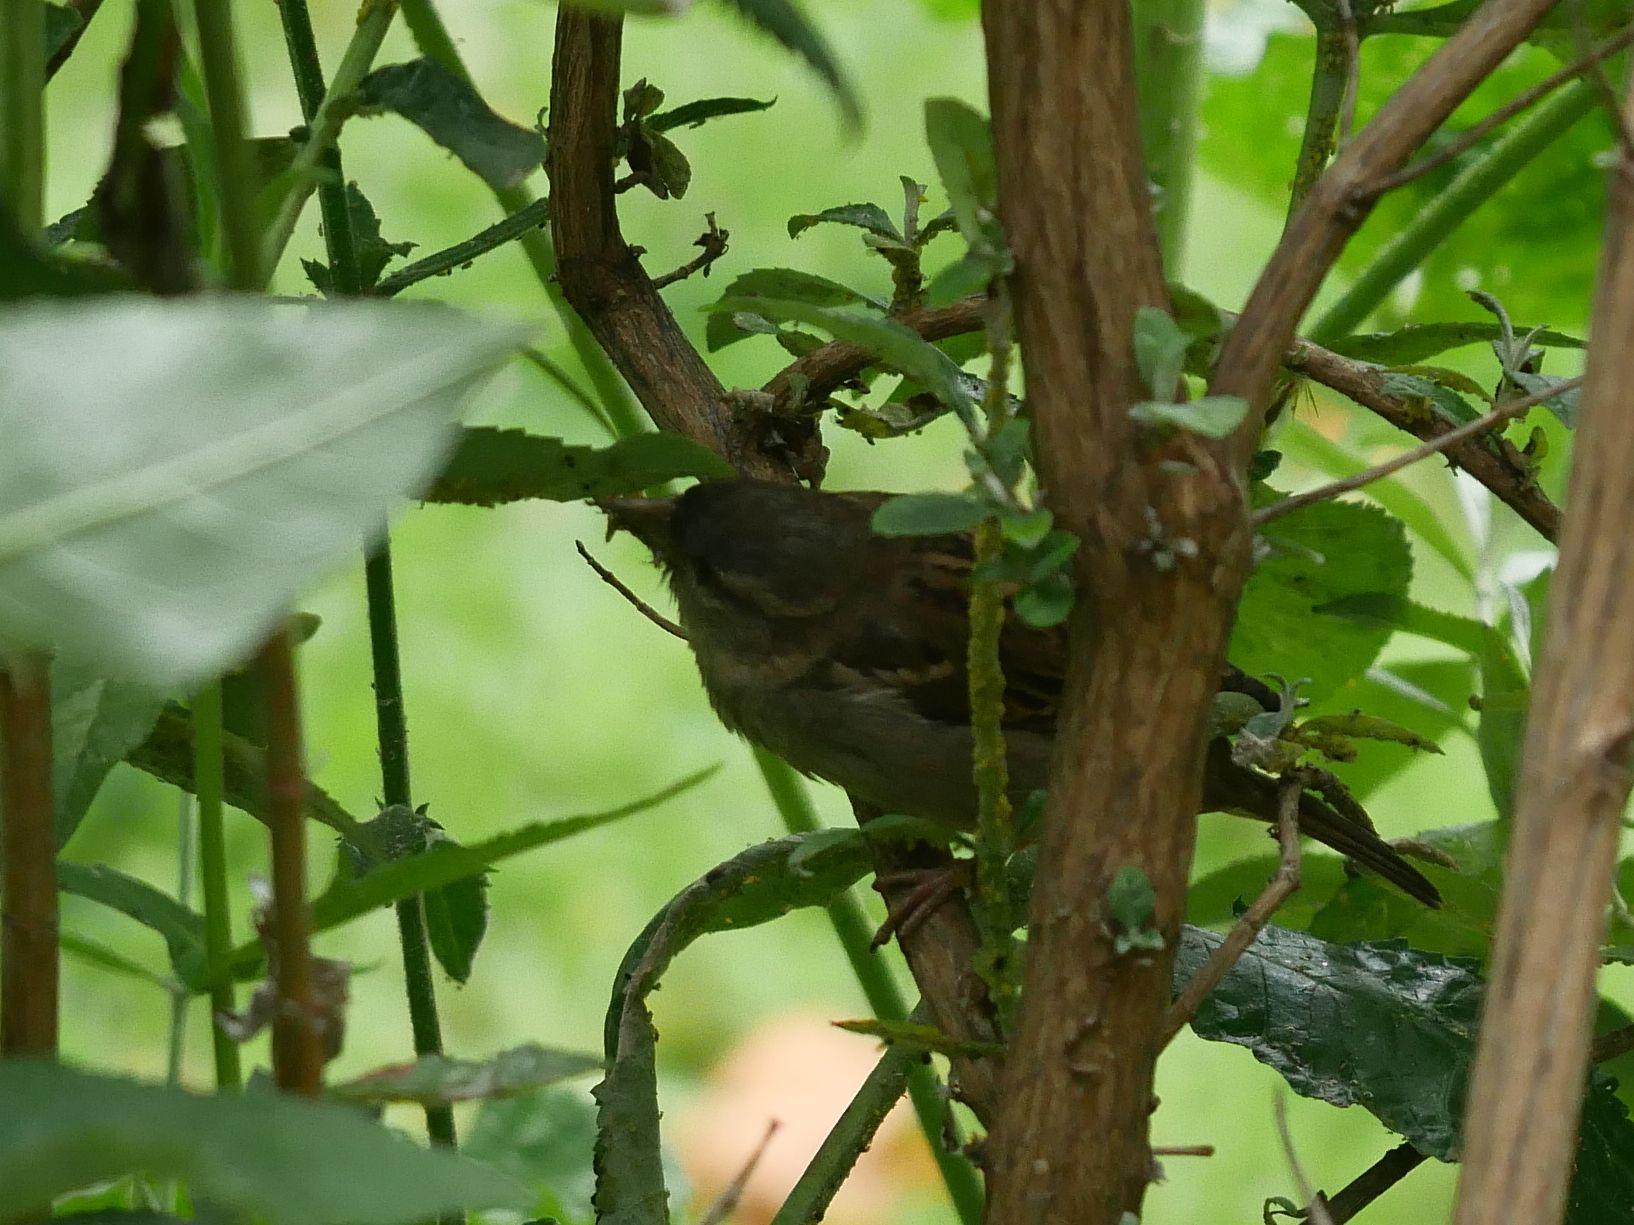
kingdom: Animalia
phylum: Chordata
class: Aves
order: Passeriformes
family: Passeridae
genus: Passer
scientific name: Passer domesticus
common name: House sparrow
